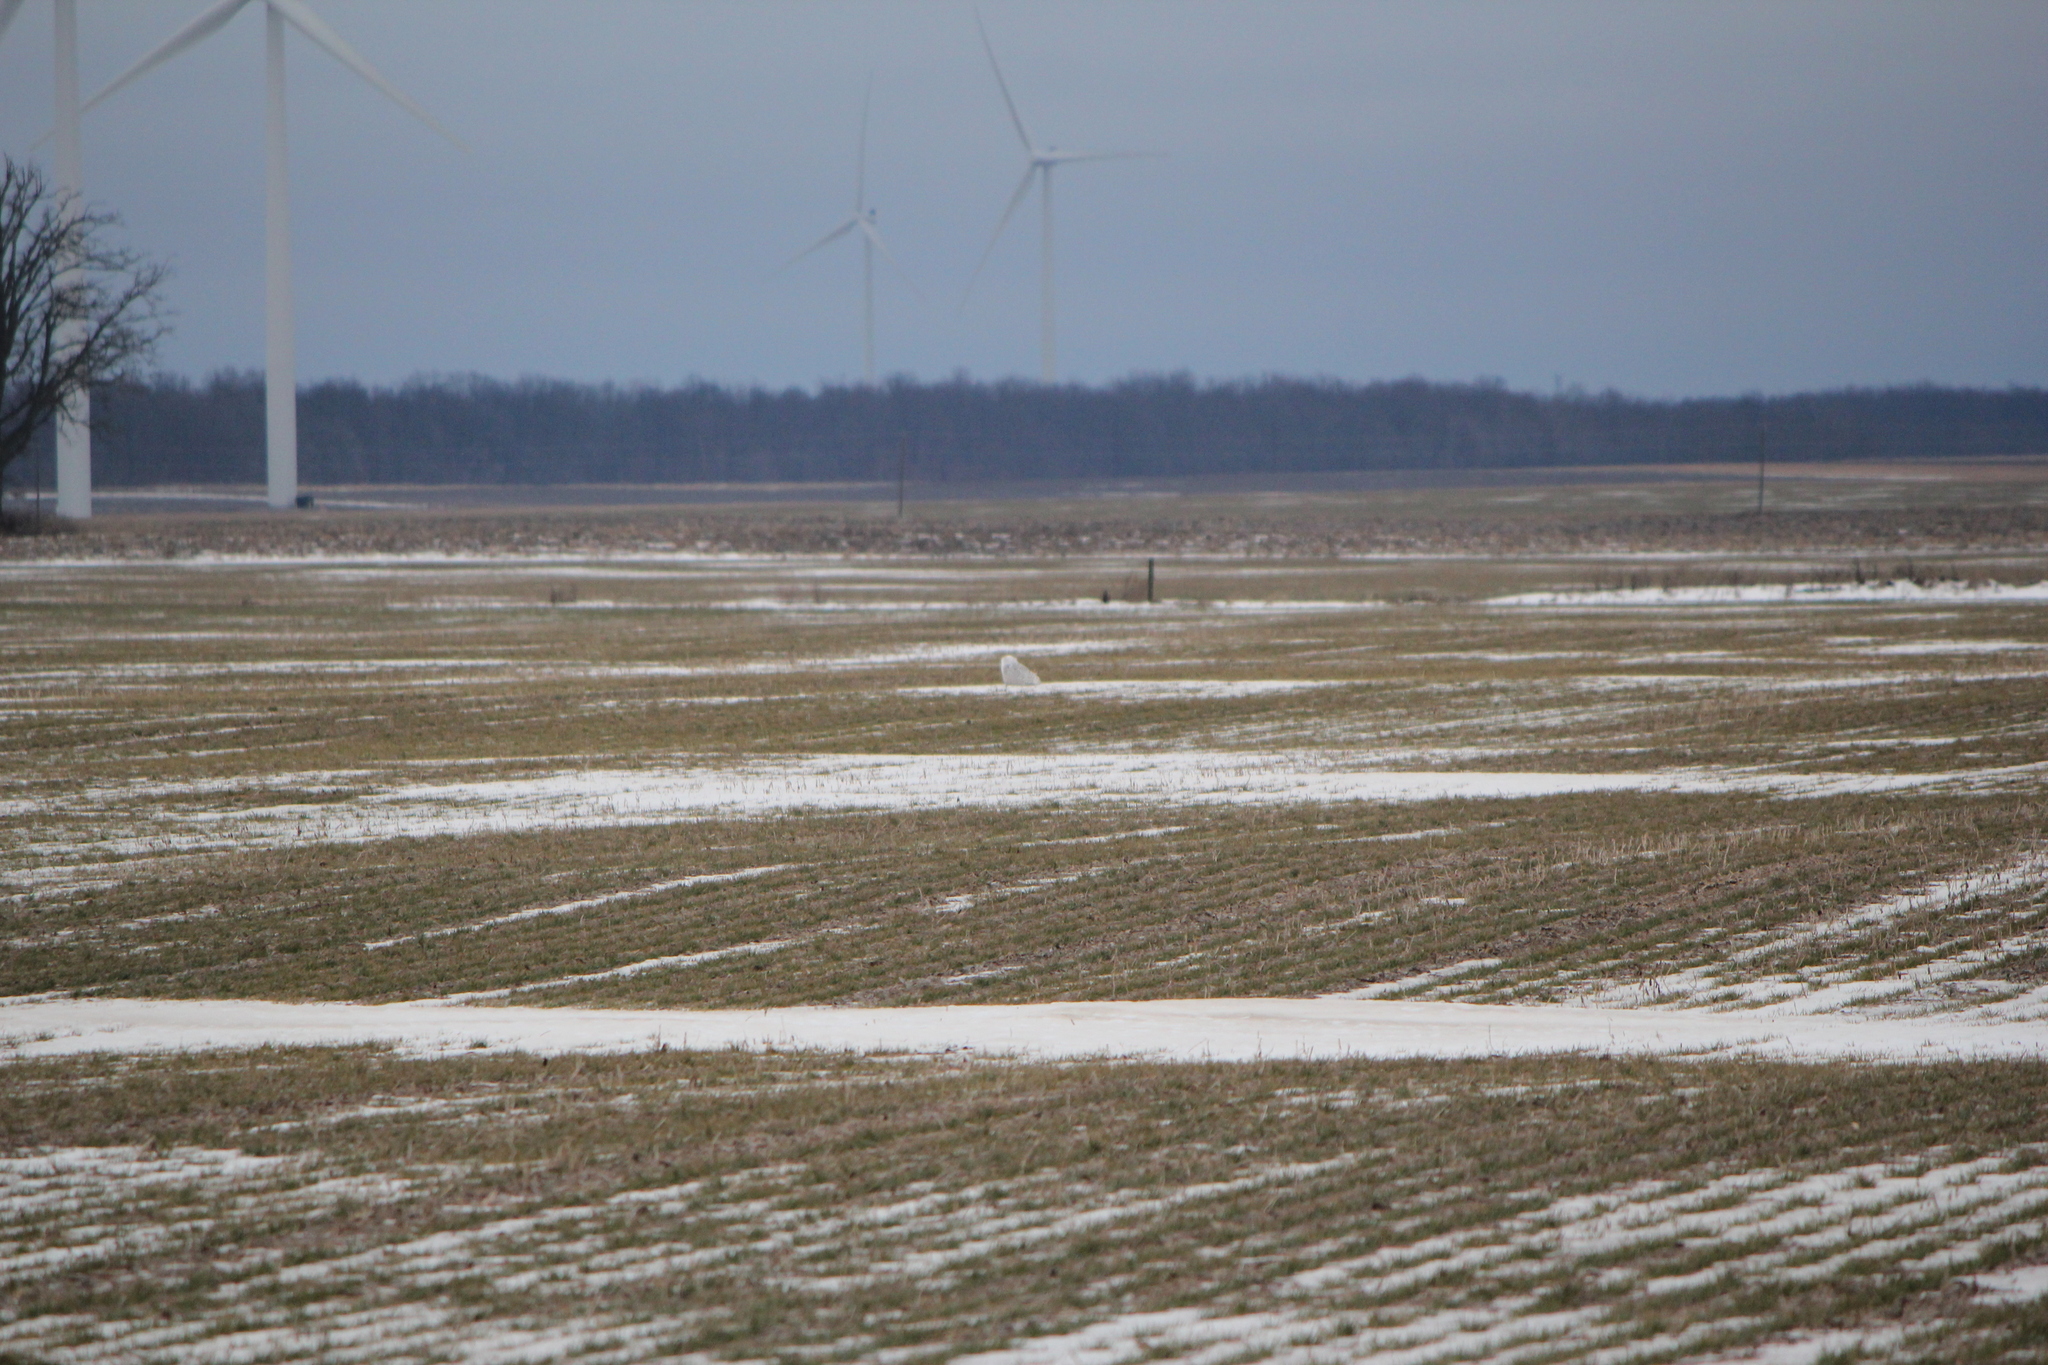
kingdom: Animalia
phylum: Chordata
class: Aves
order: Strigiformes
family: Strigidae
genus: Bubo
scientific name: Bubo scandiacus
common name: Snowy owl
